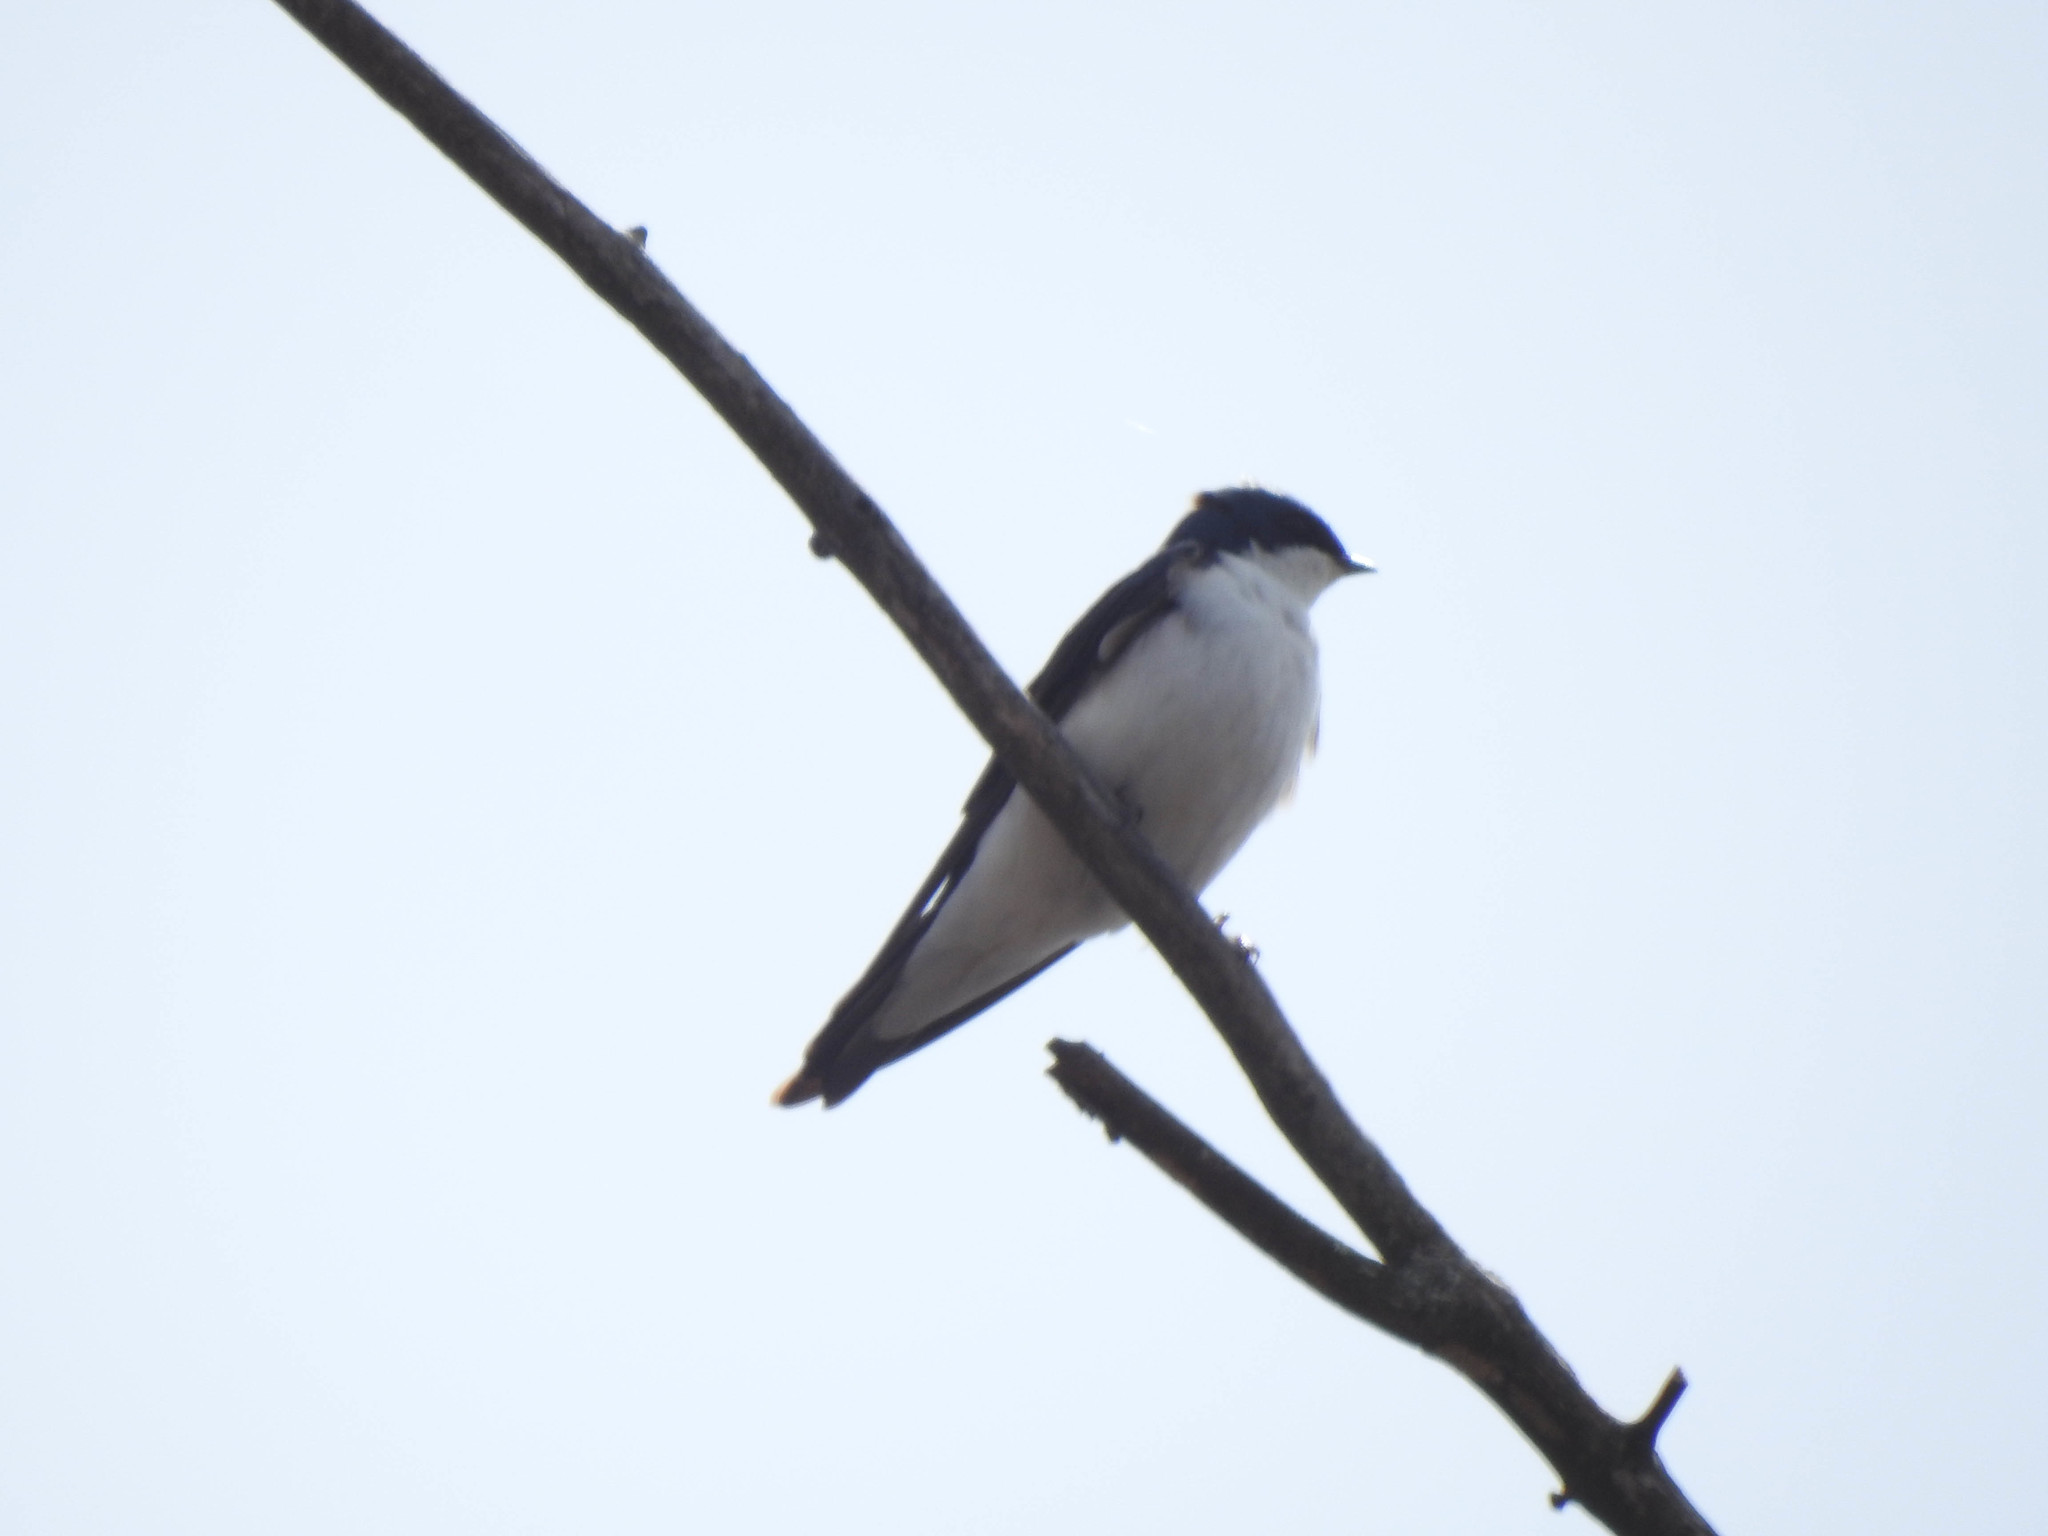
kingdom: Animalia
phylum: Chordata
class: Aves
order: Passeriformes
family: Hirundinidae
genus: Tachycineta
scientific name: Tachycineta bicolor
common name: Tree swallow
